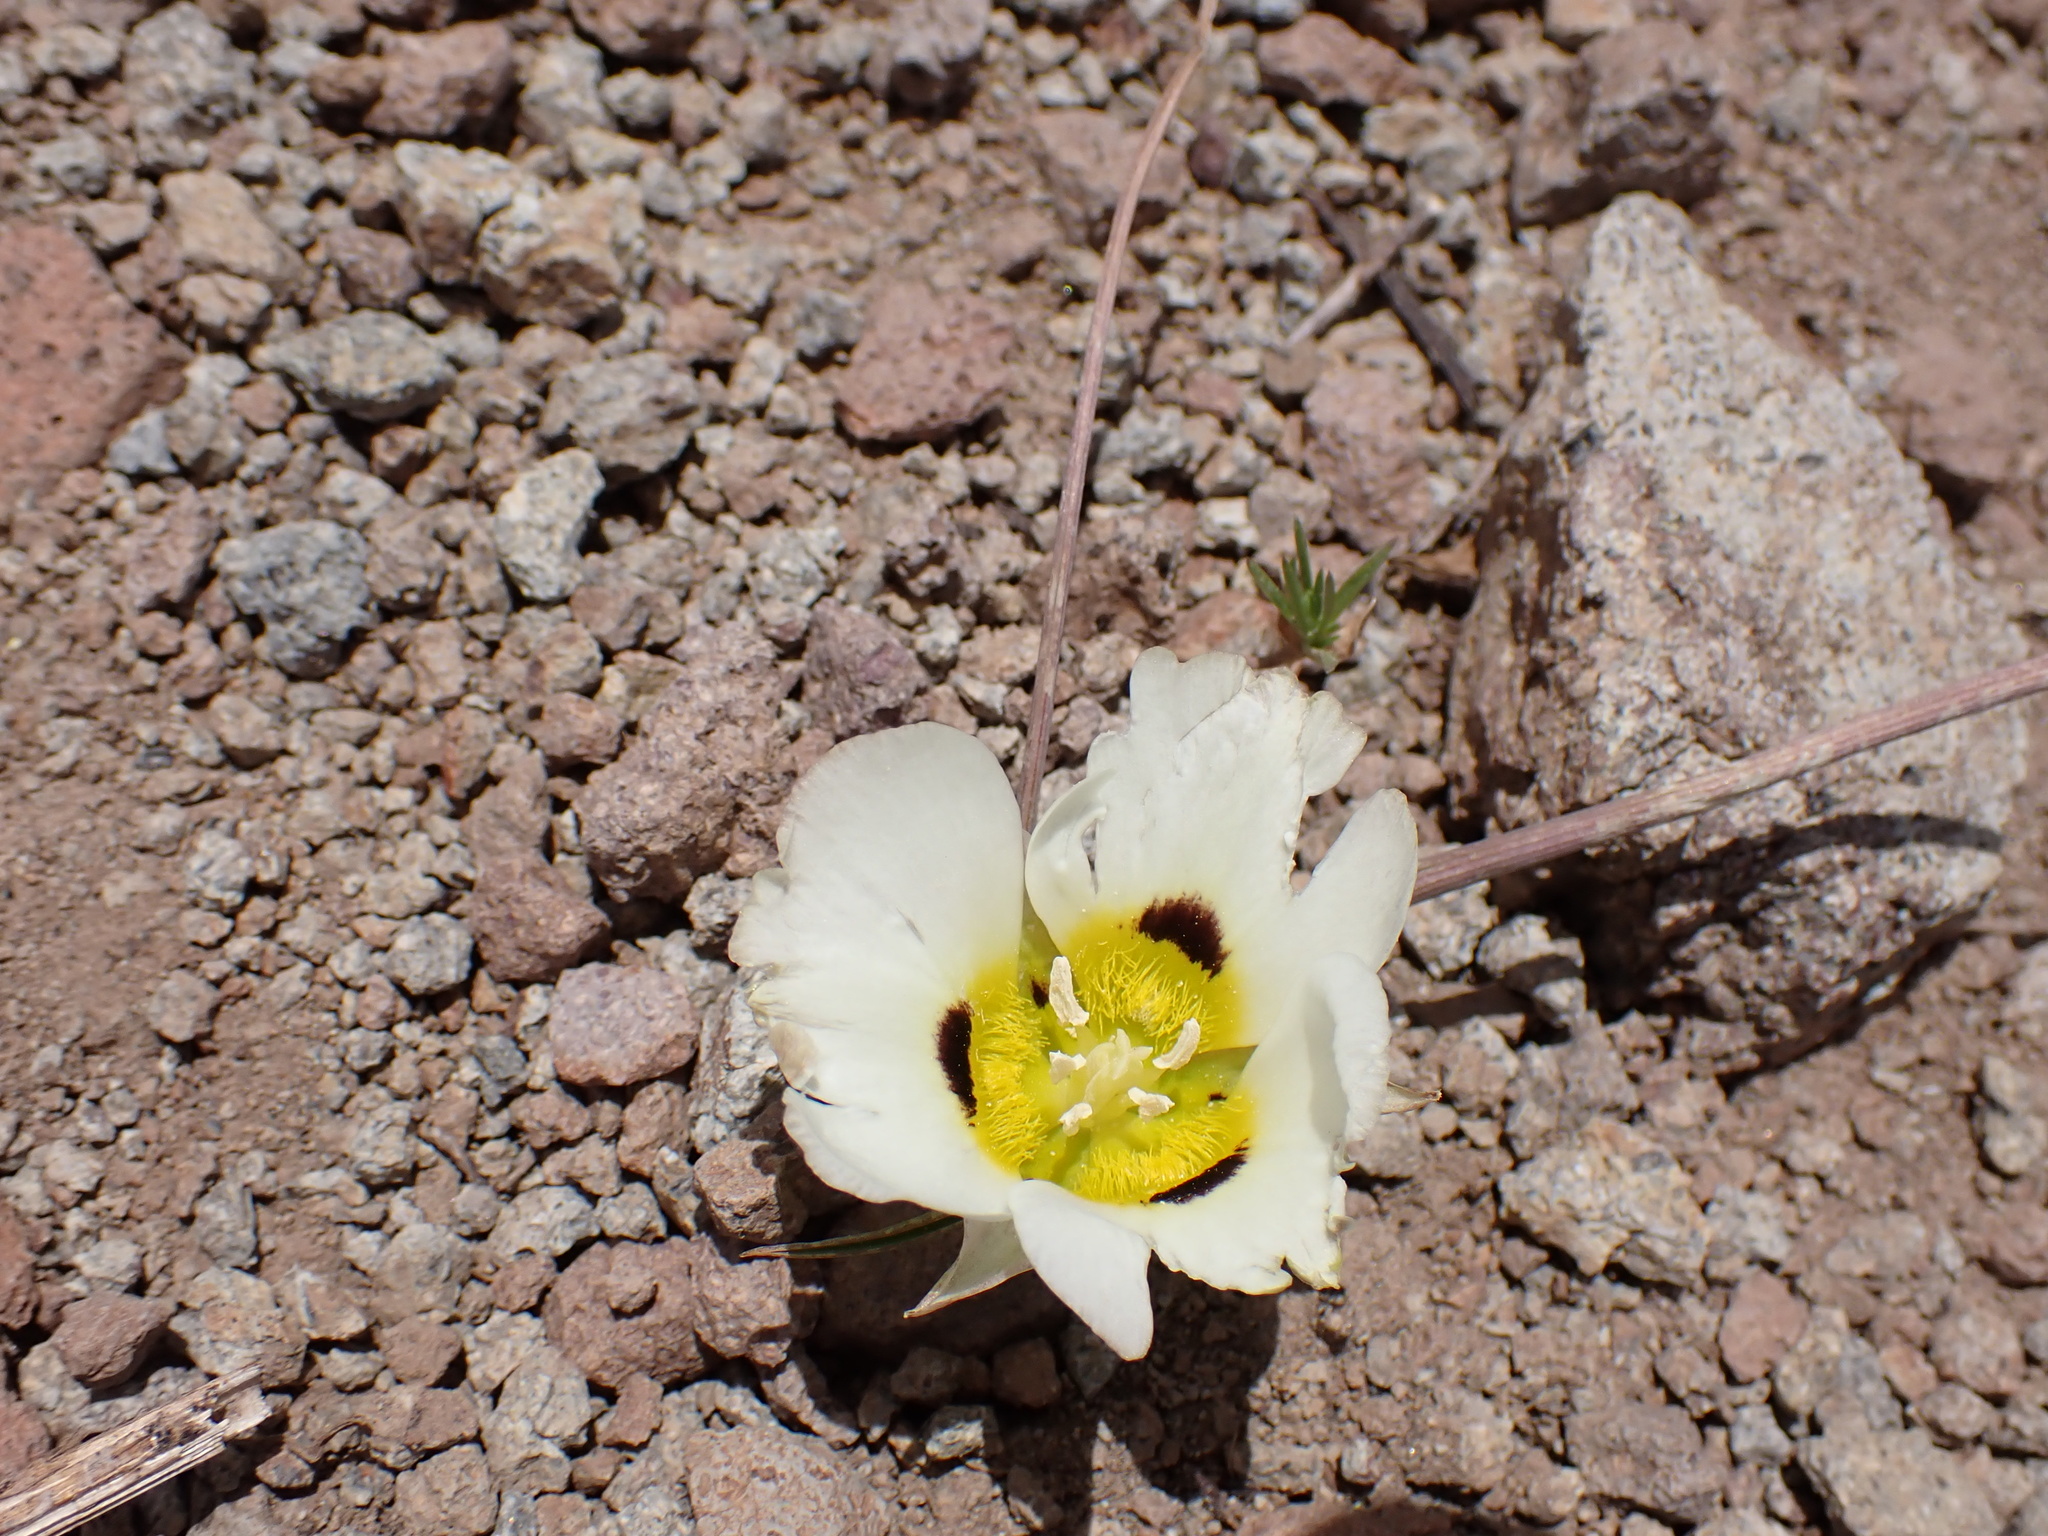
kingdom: Plantae
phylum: Tracheophyta
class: Liliopsida
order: Liliales
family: Liliaceae
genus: Calochortus
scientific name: Calochortus leichtlinii
